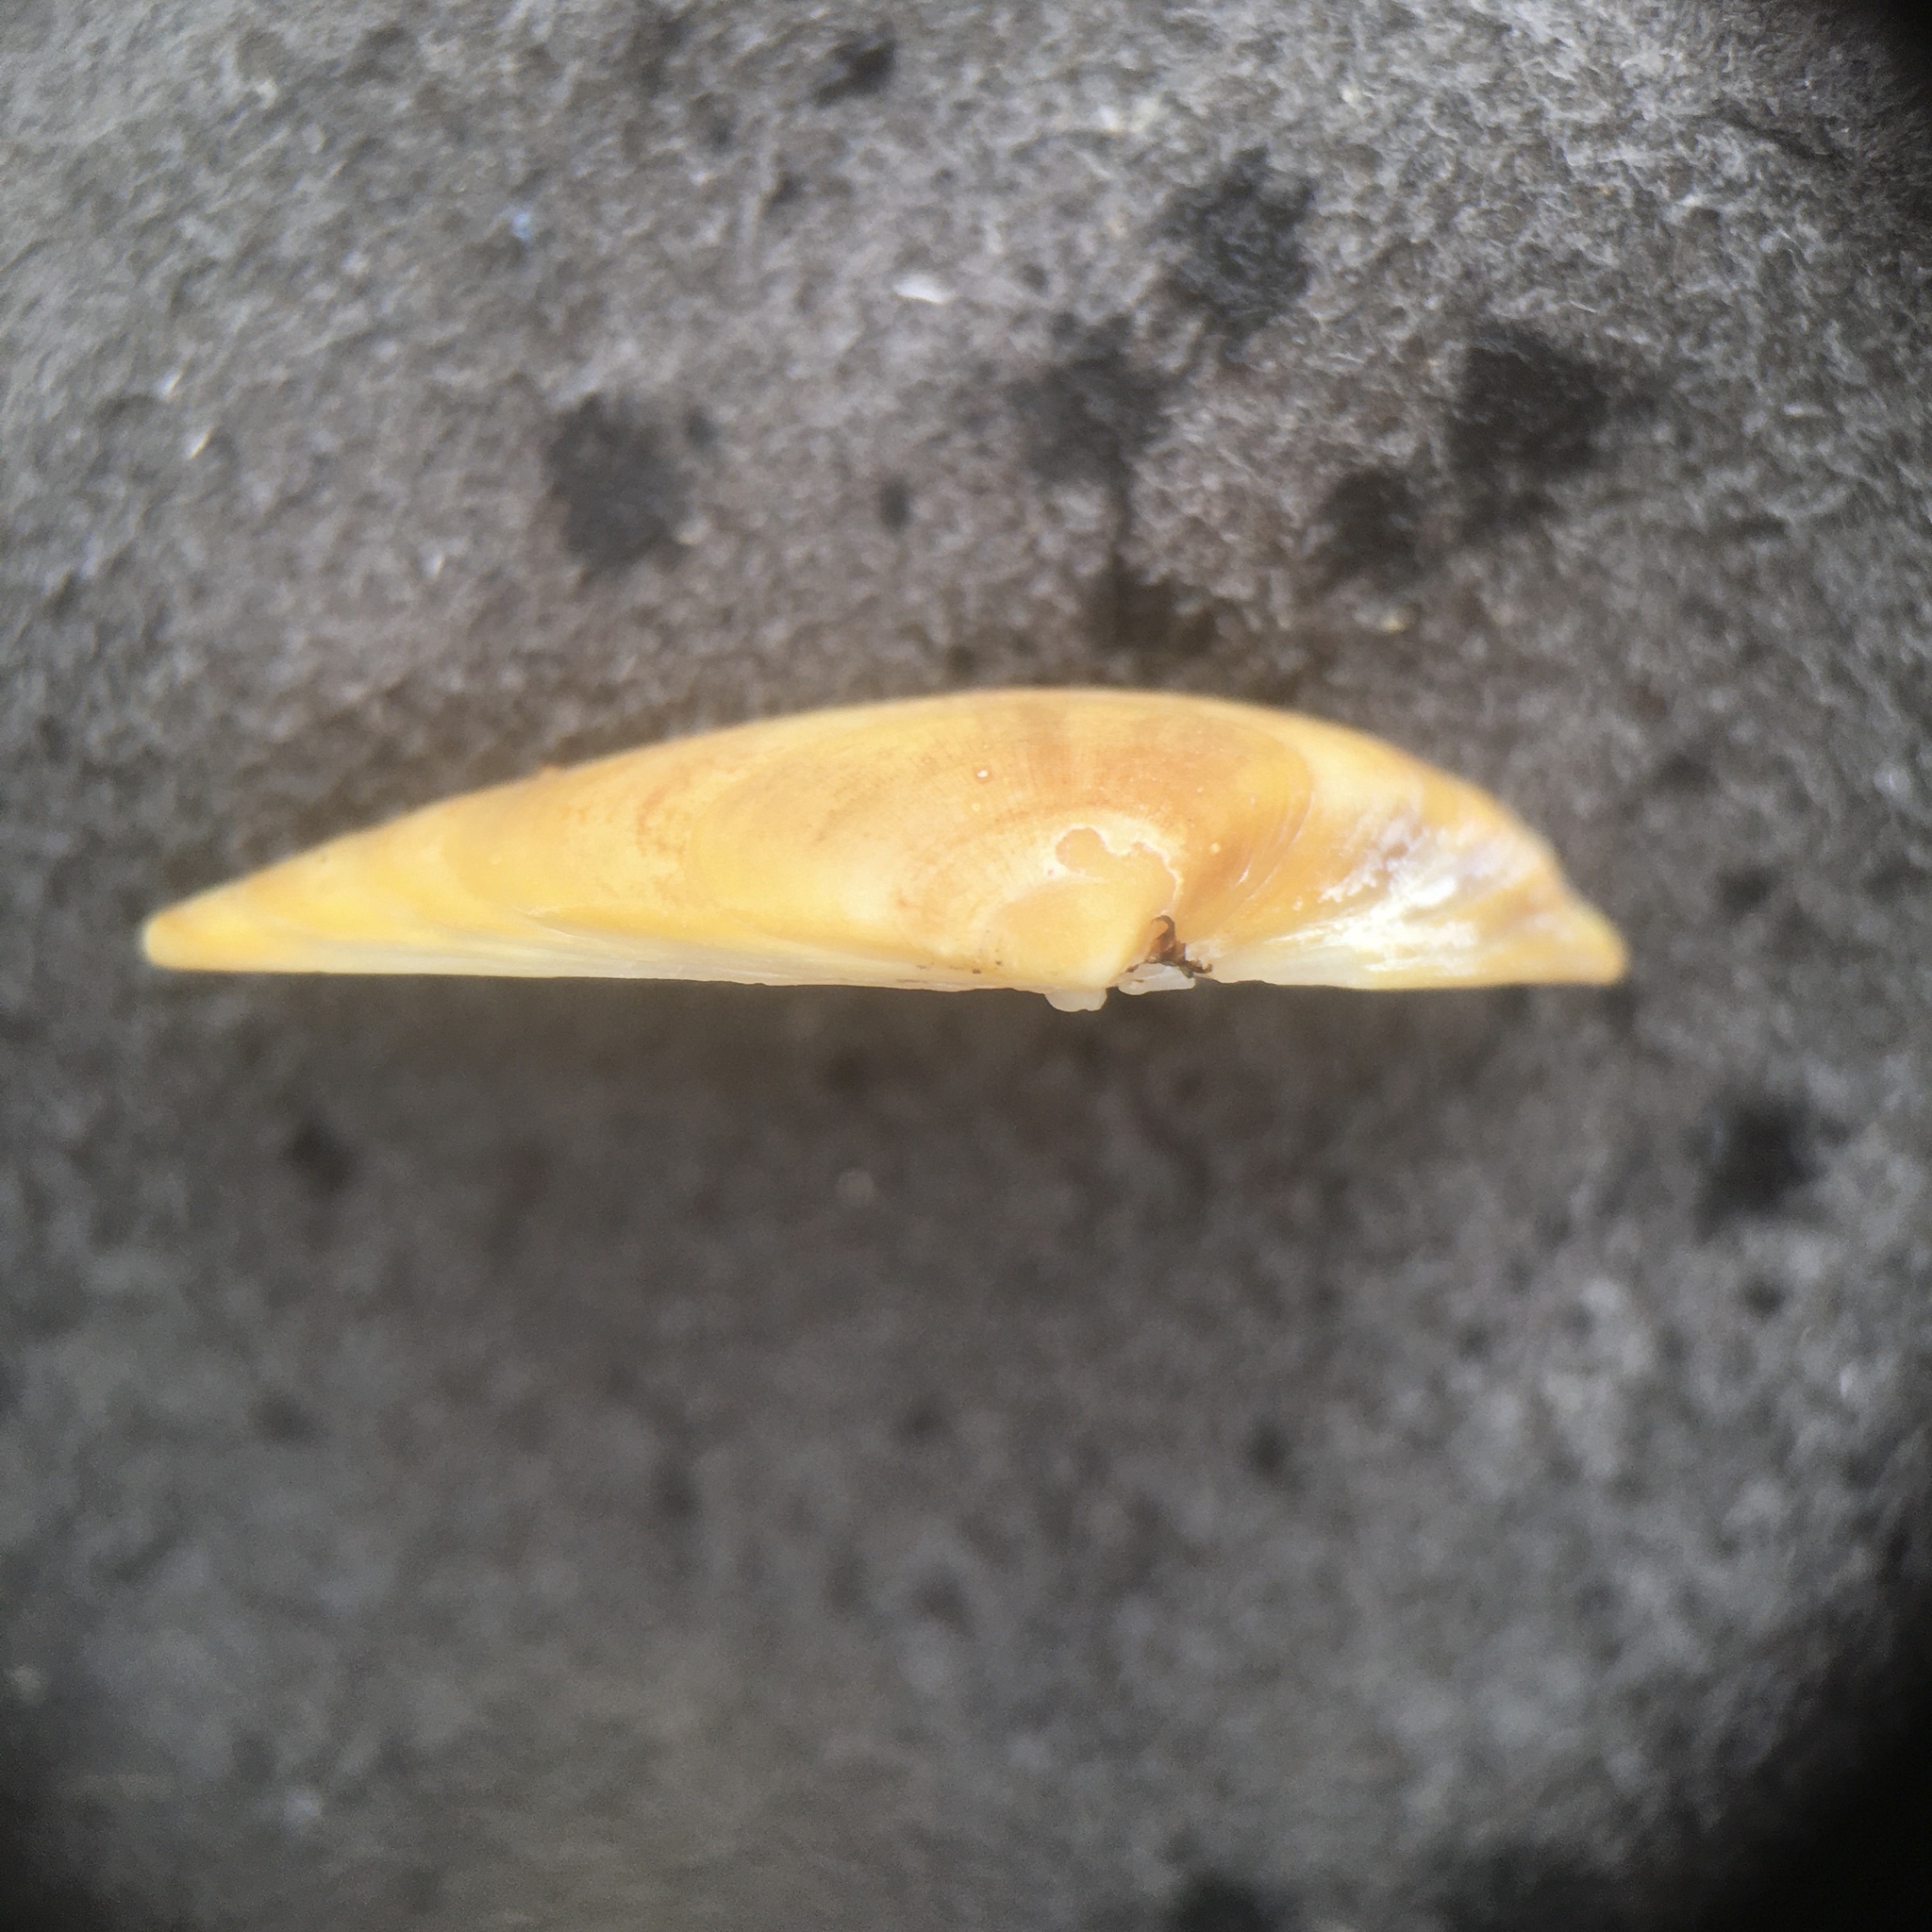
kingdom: Animalia
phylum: Mollusca
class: Bivalvia
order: Cardiida
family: Donacidae
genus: Donax
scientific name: Donax vittatus
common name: Banded wedge-shell
